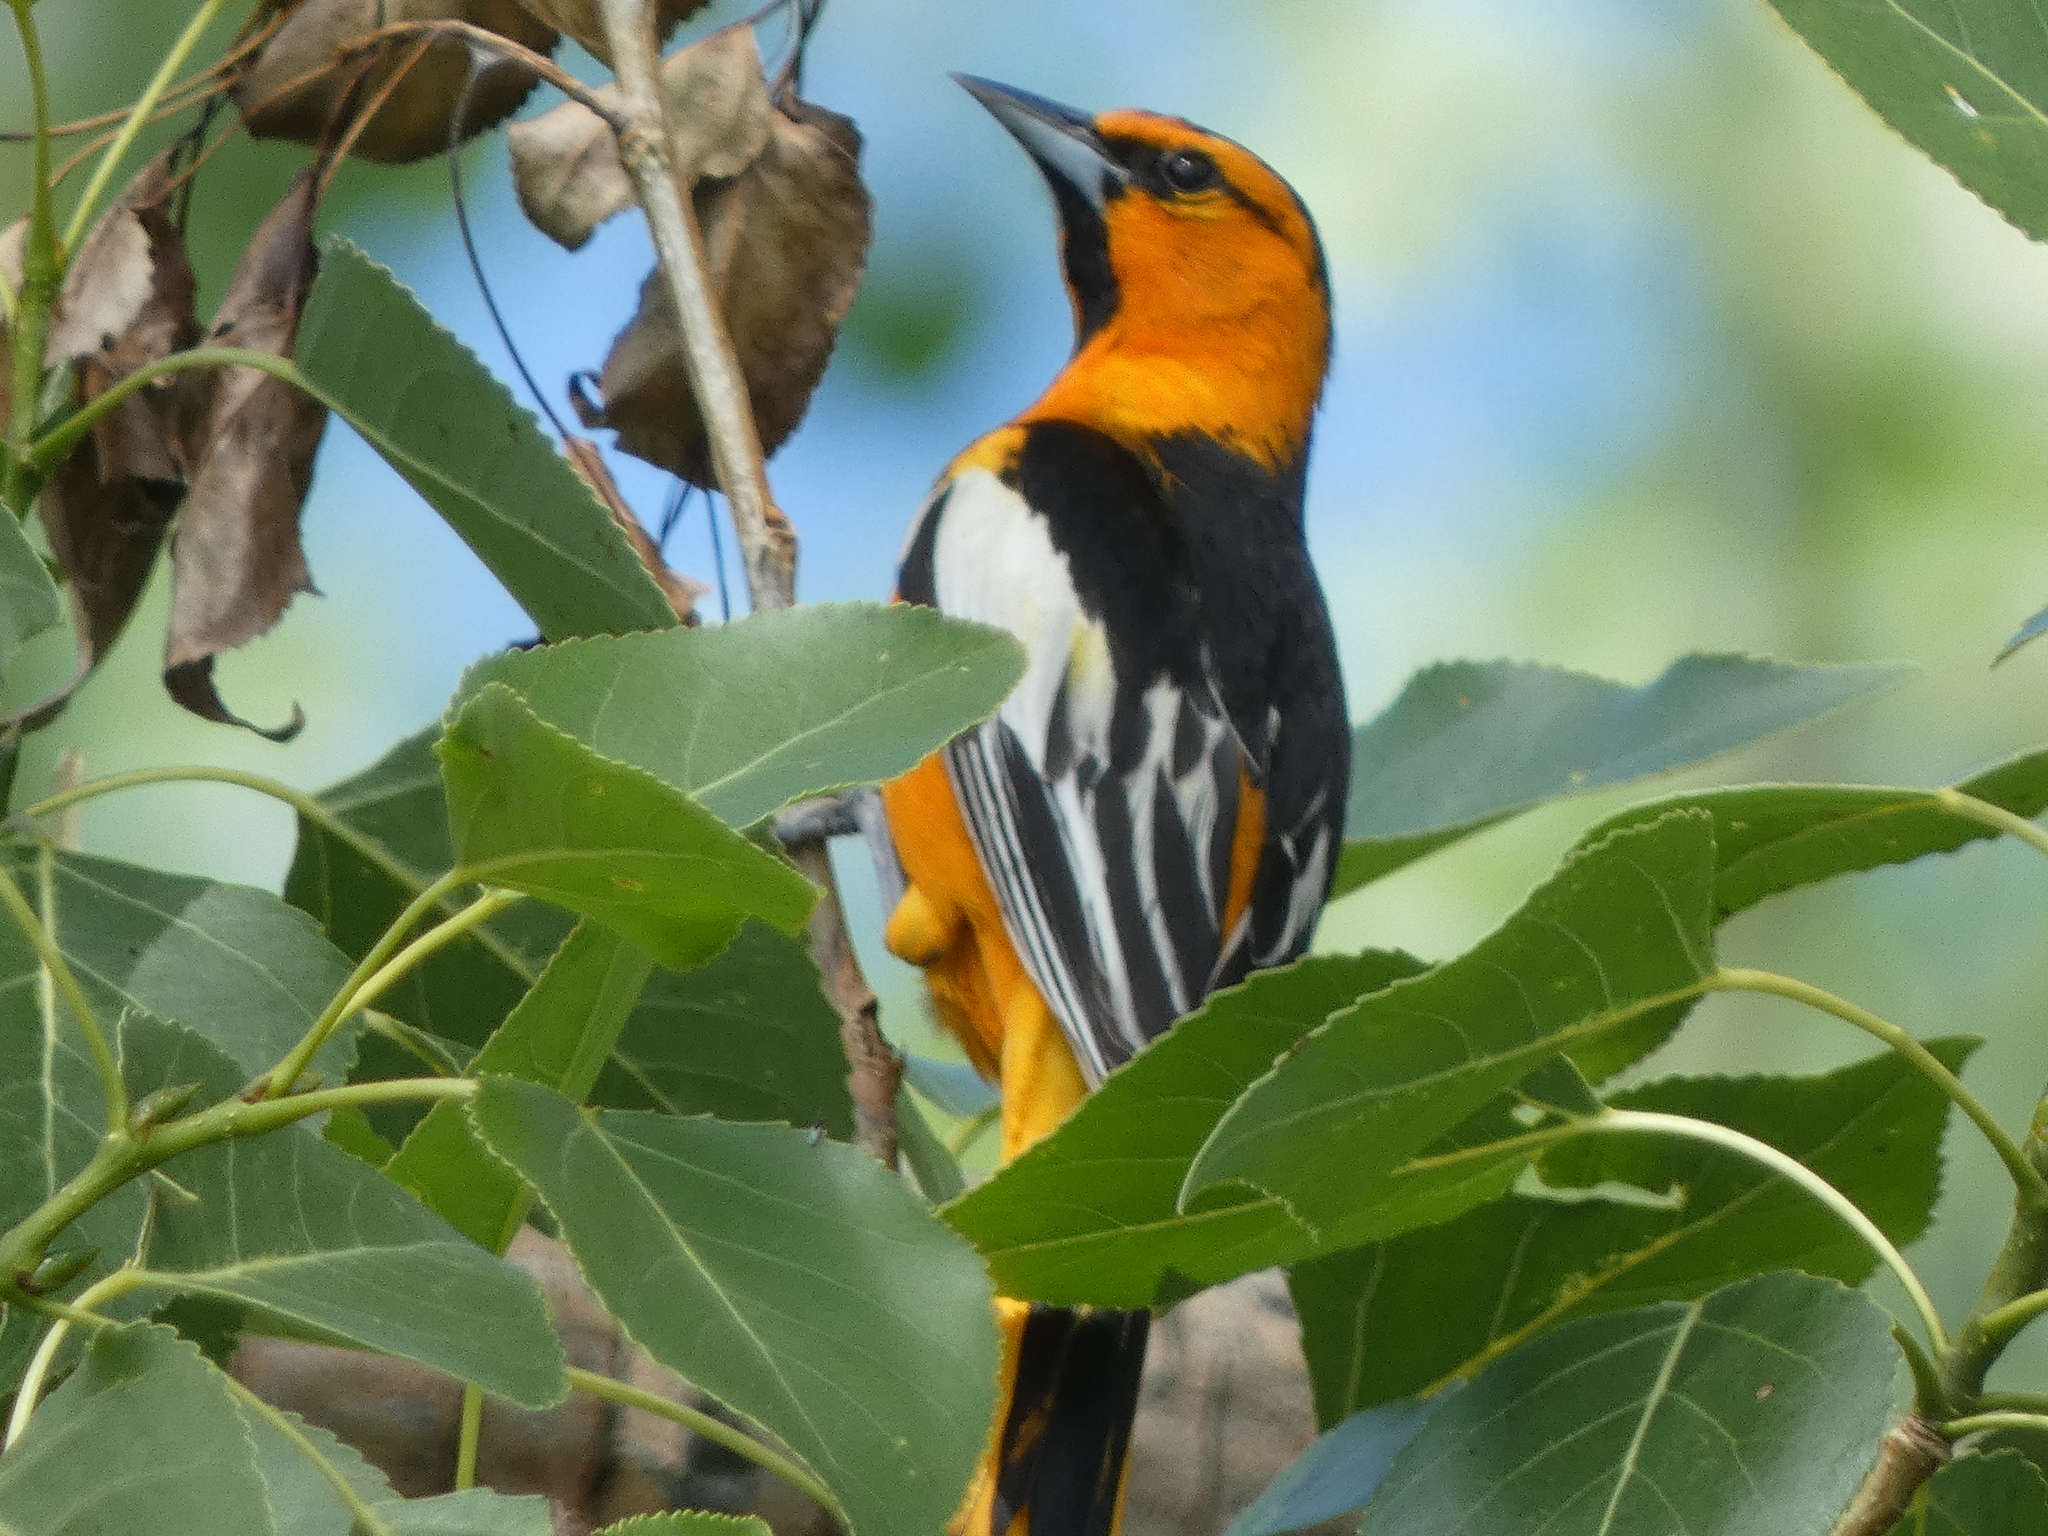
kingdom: Animalia
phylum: Chordata
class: Aves
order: Passeriformes
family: Icteridae
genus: Icterus
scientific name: Icterus bullockii
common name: Bullock's oriole
